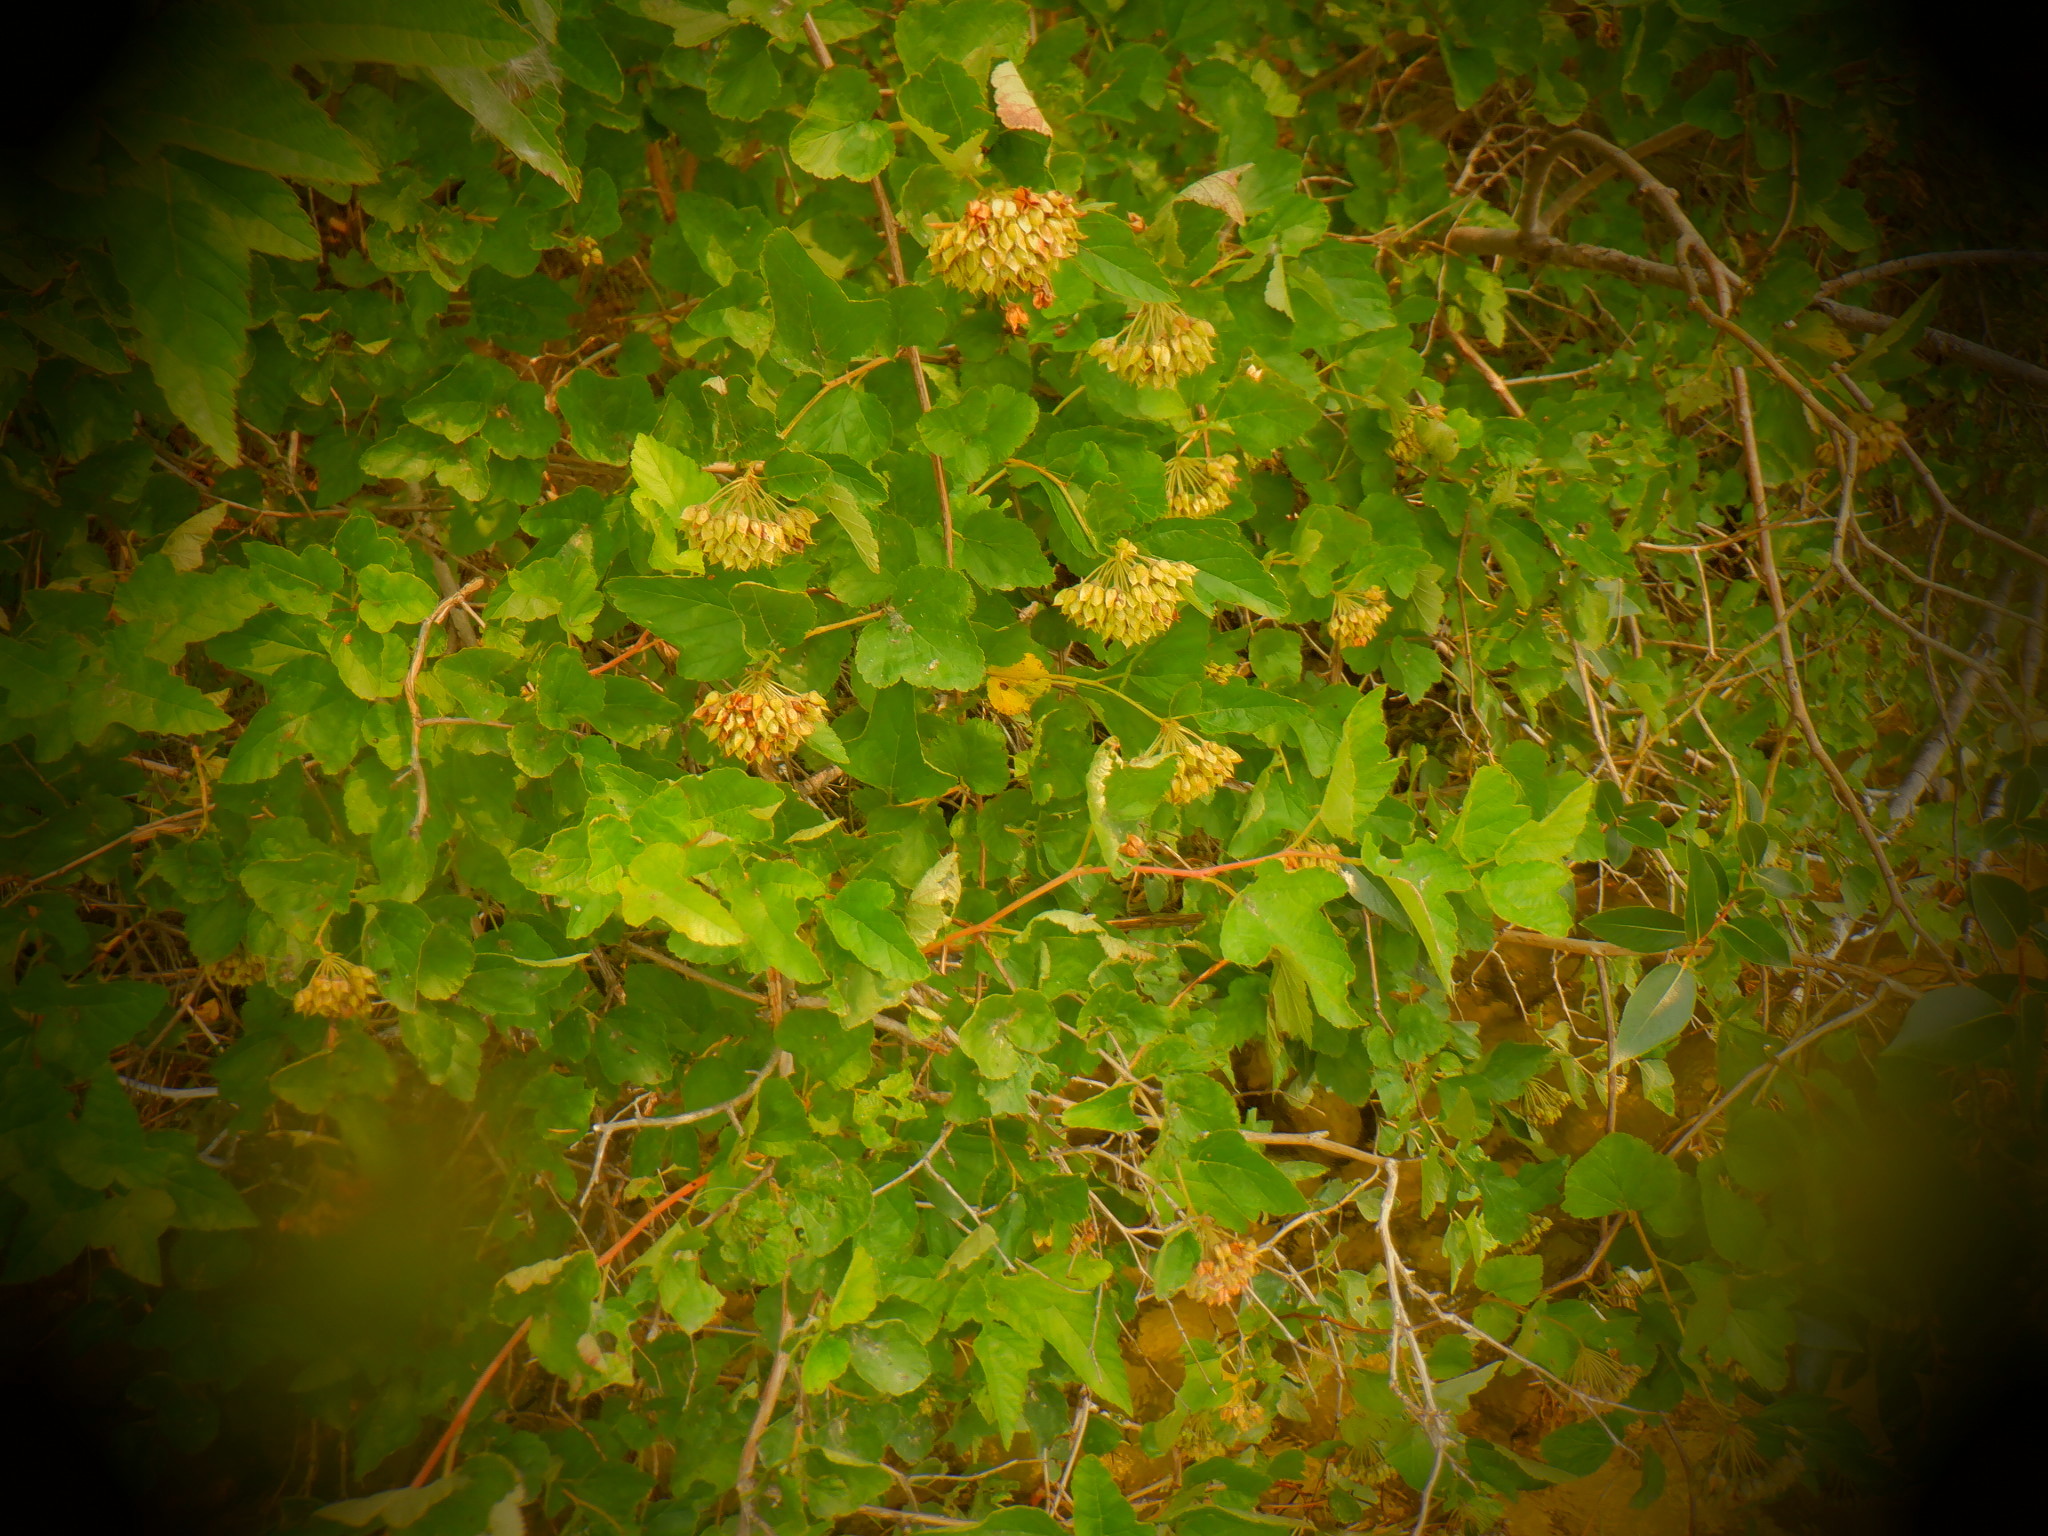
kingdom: Plantae
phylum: Tracheophyta
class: Magnoliopsida
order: Rosales
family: Rosaceae
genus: Physocarpus
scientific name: Physocarpus opulifolius
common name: Ninebark
